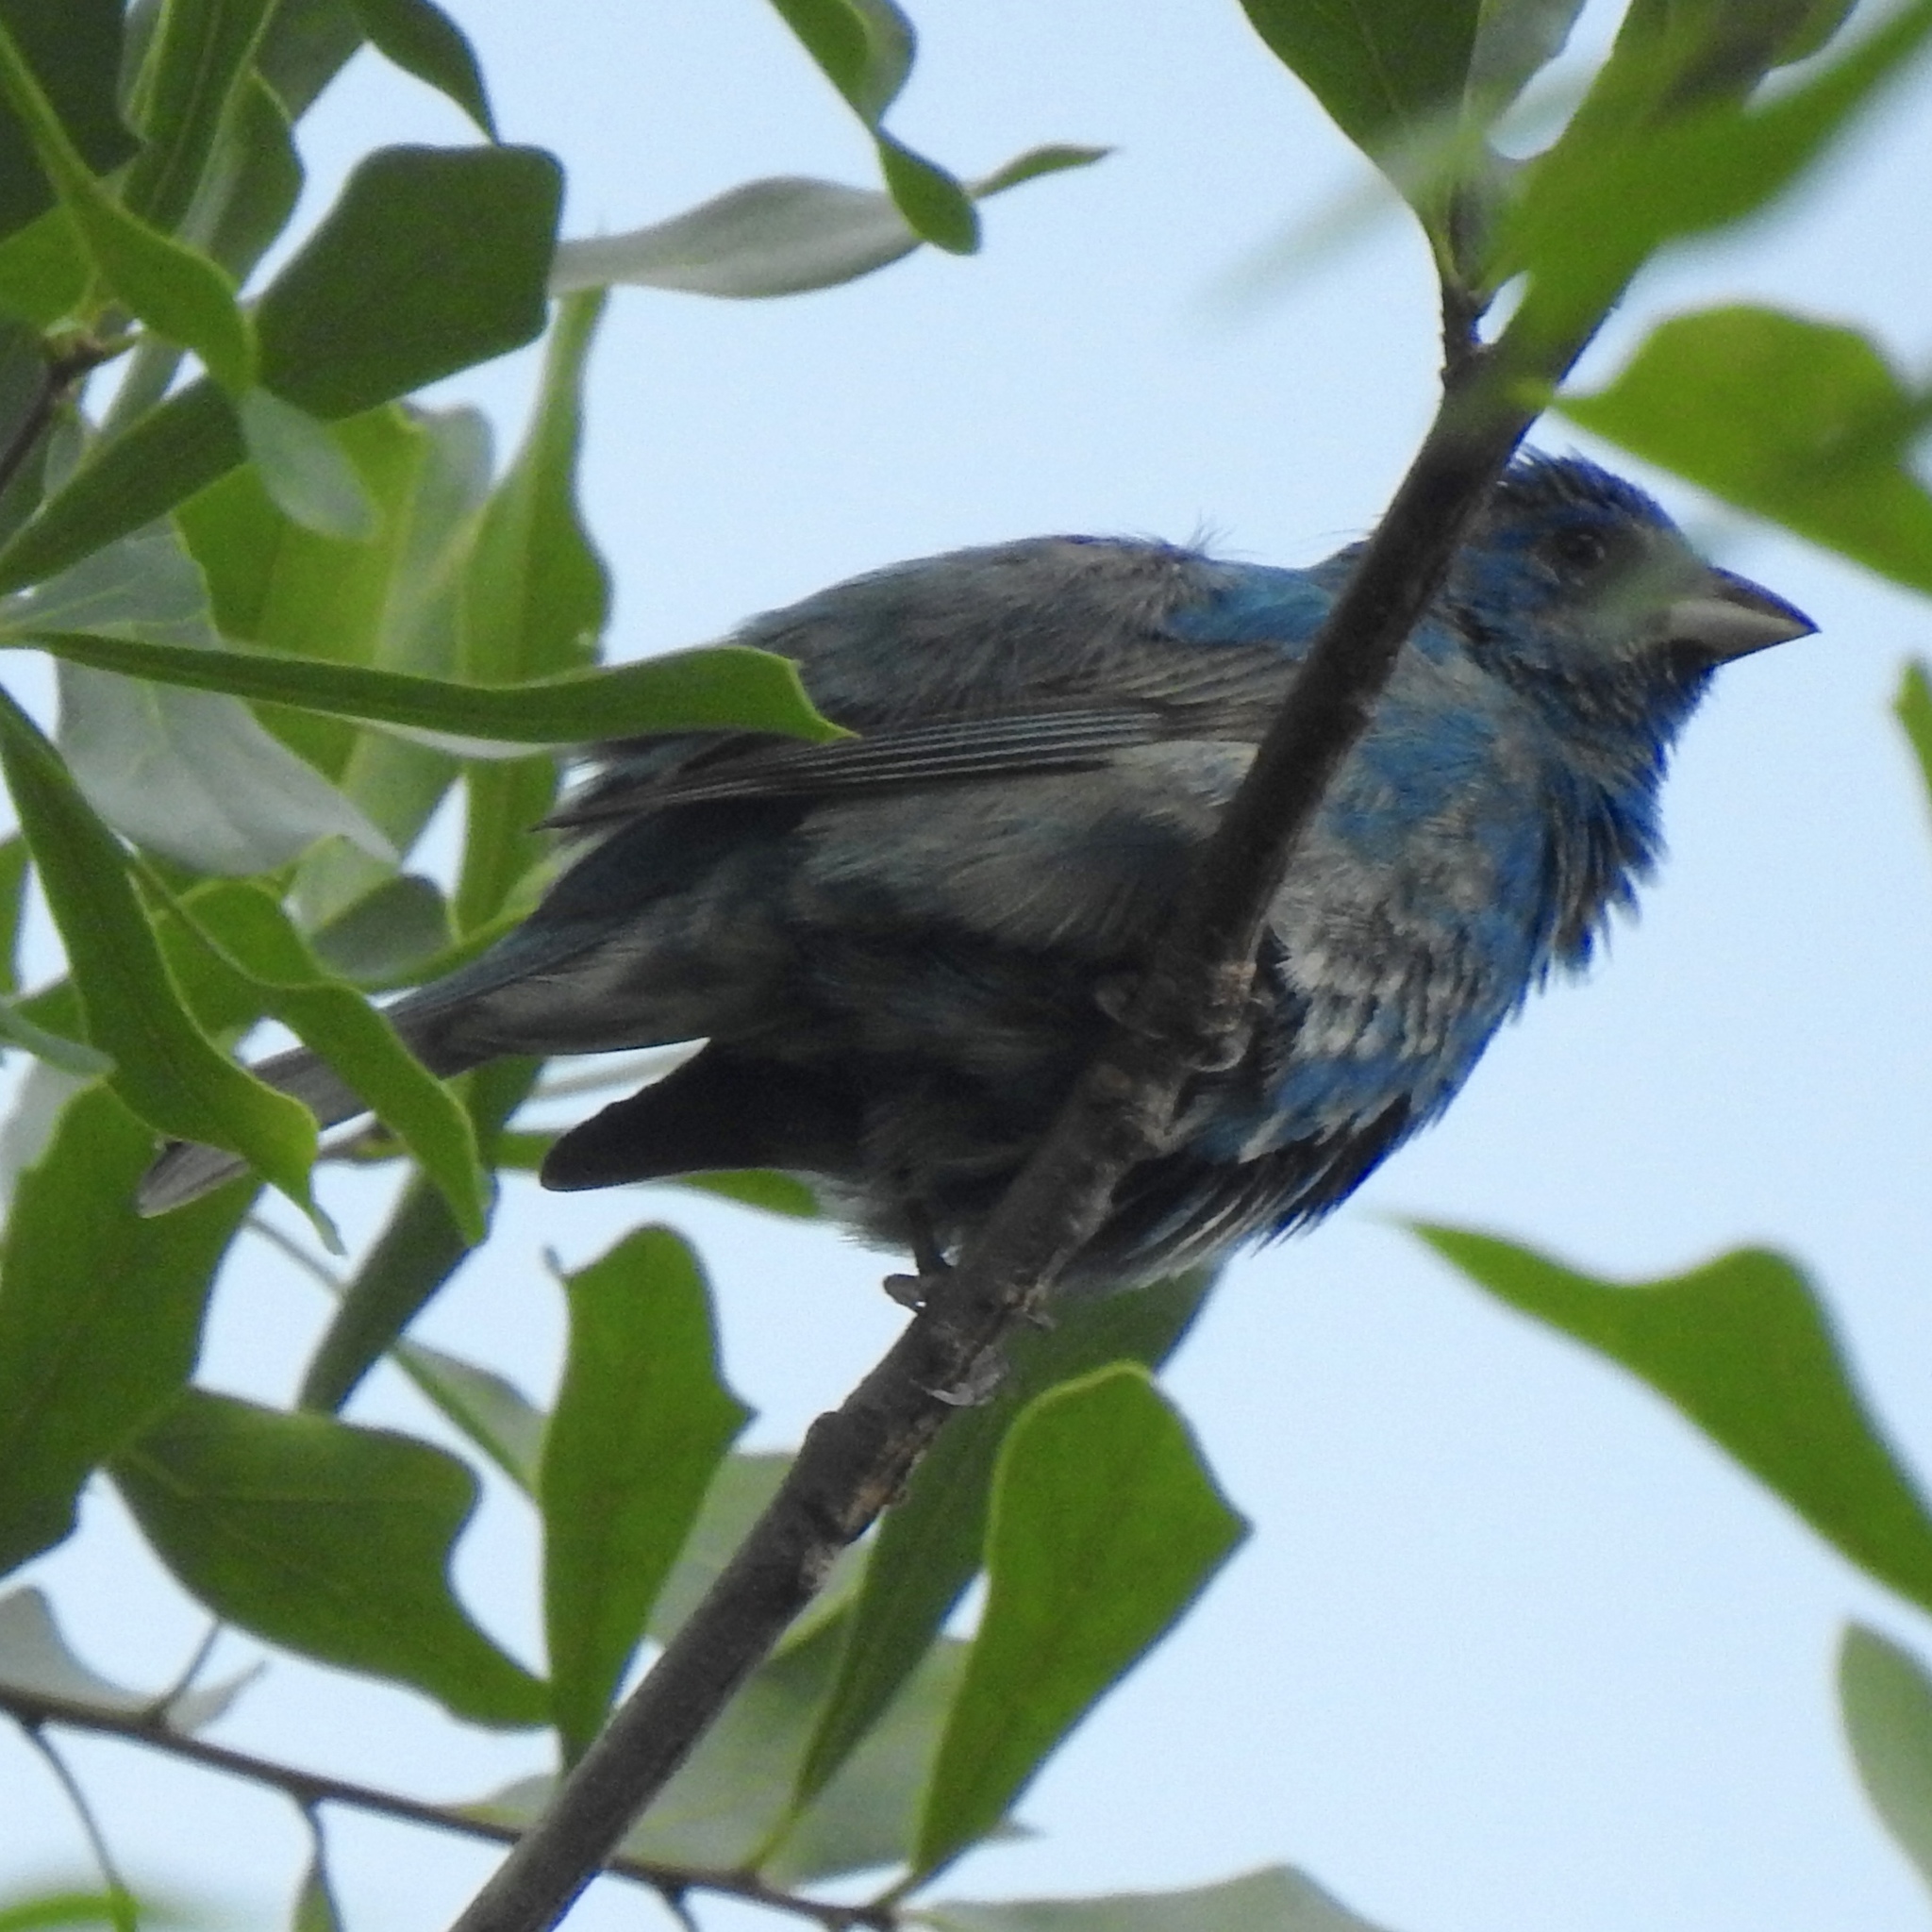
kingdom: Animalia
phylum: Chordata
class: Aves
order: Passeriformes
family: Cardinalidae
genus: Passerina
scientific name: Passerina cyanea
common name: Indigo bunting
